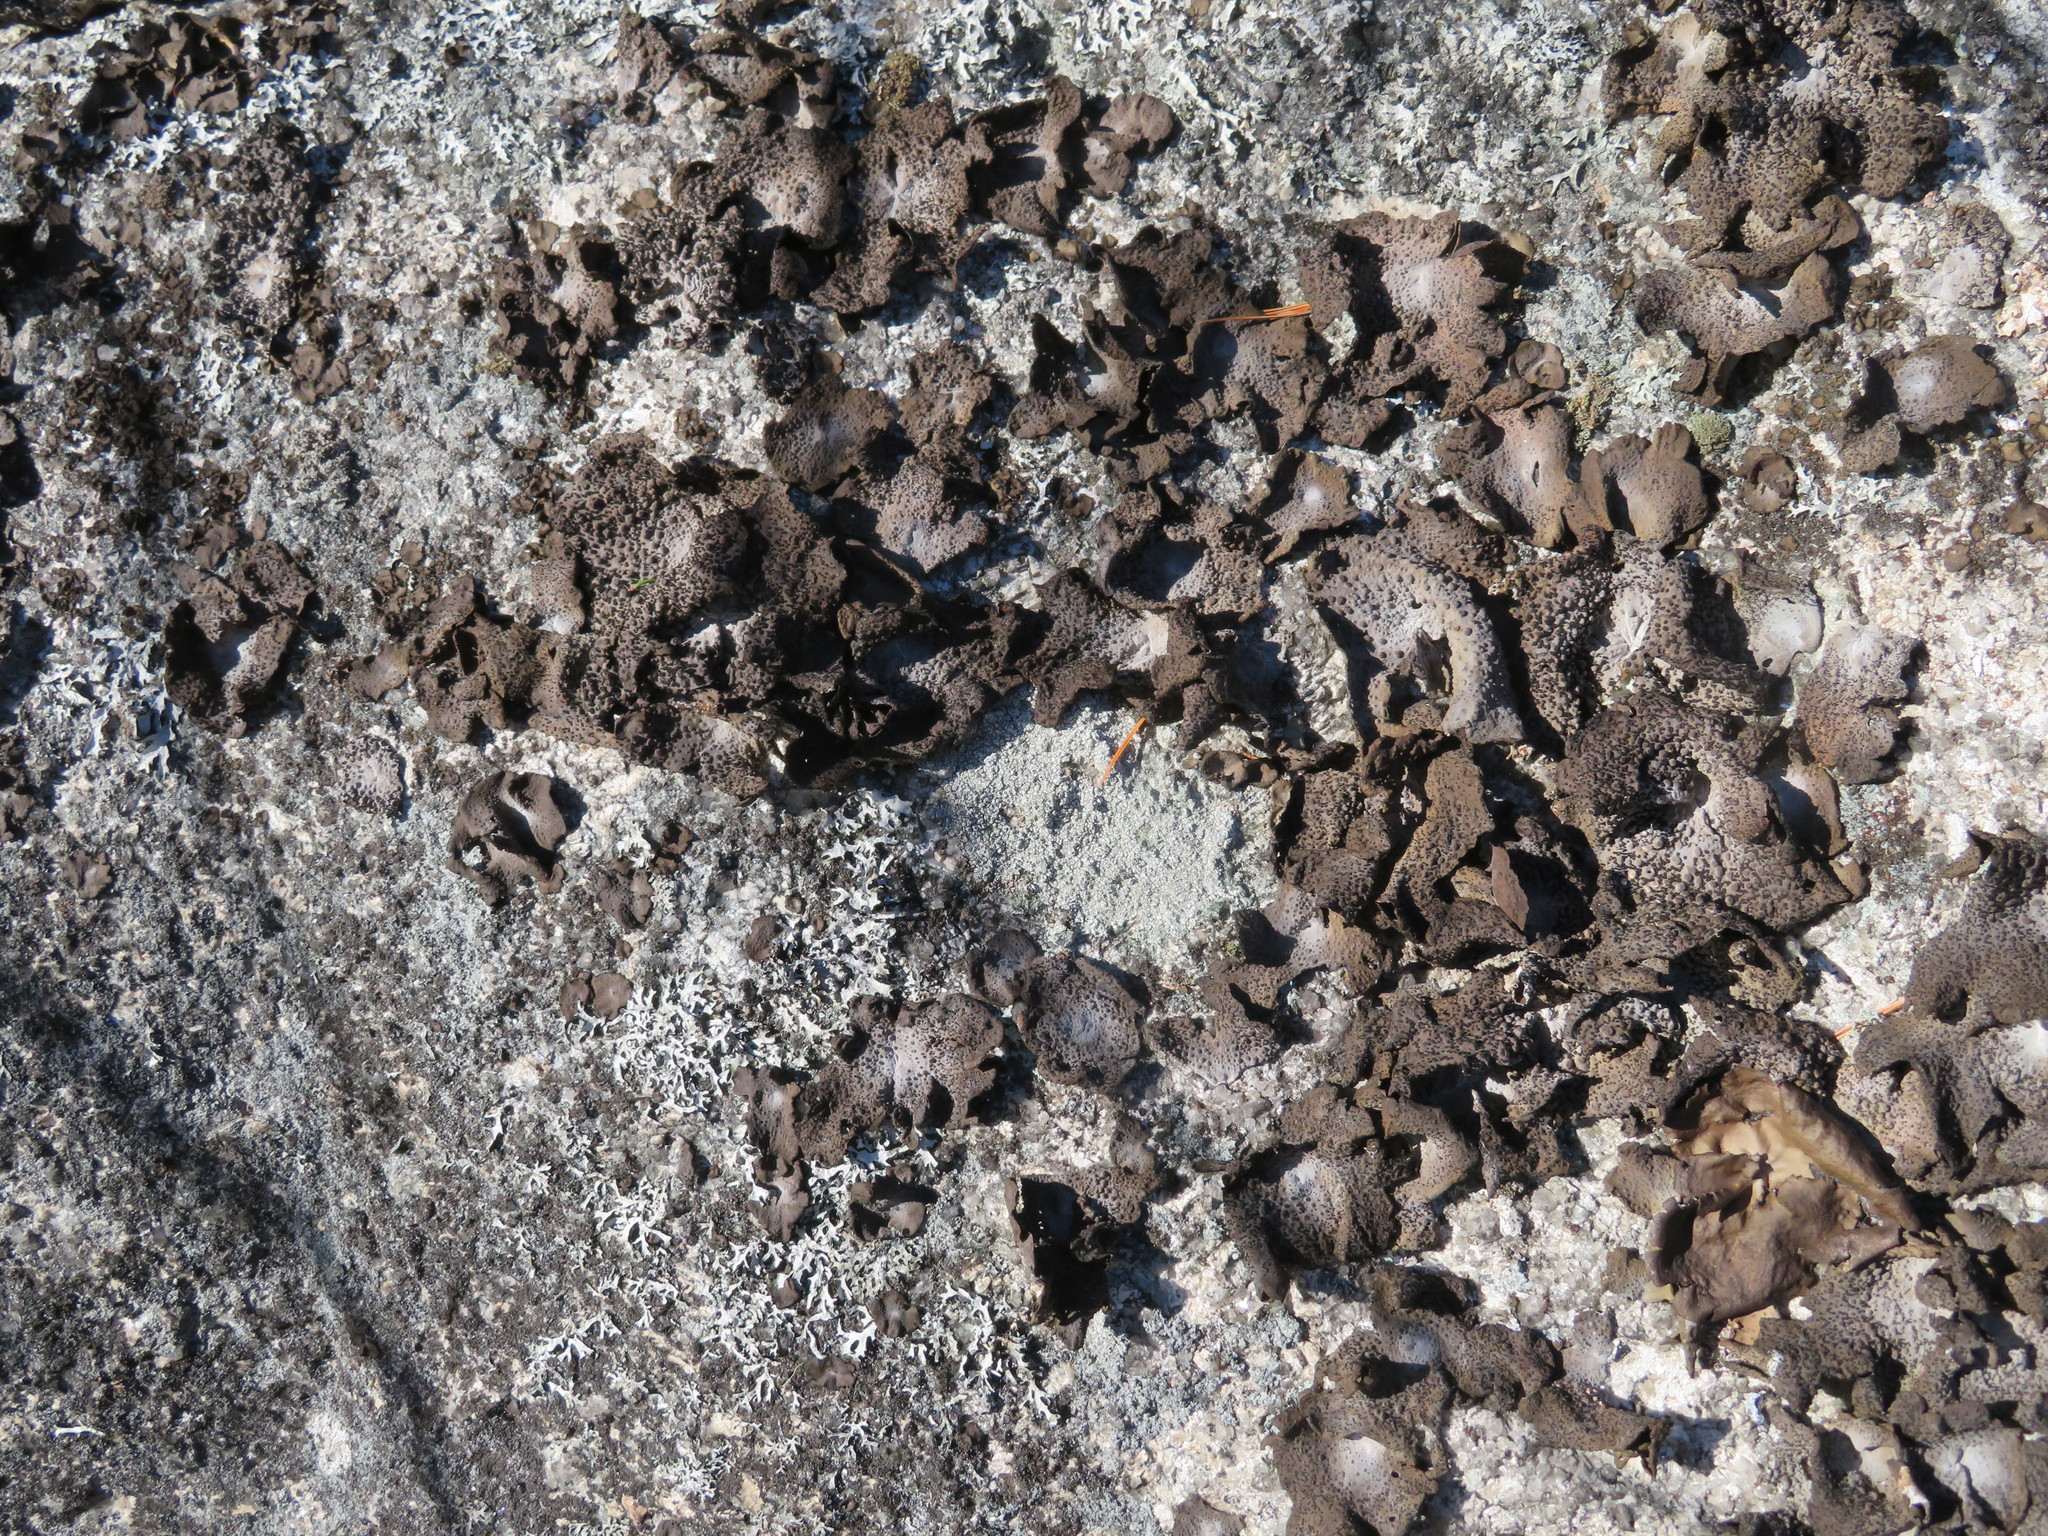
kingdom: Fungi
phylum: Ascomycota
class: Lecanoromycetes
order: Umbilicariales
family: Umbilicariaceae
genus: Lasallia
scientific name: Lasallia papulosa
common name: Common toadskin lichen
